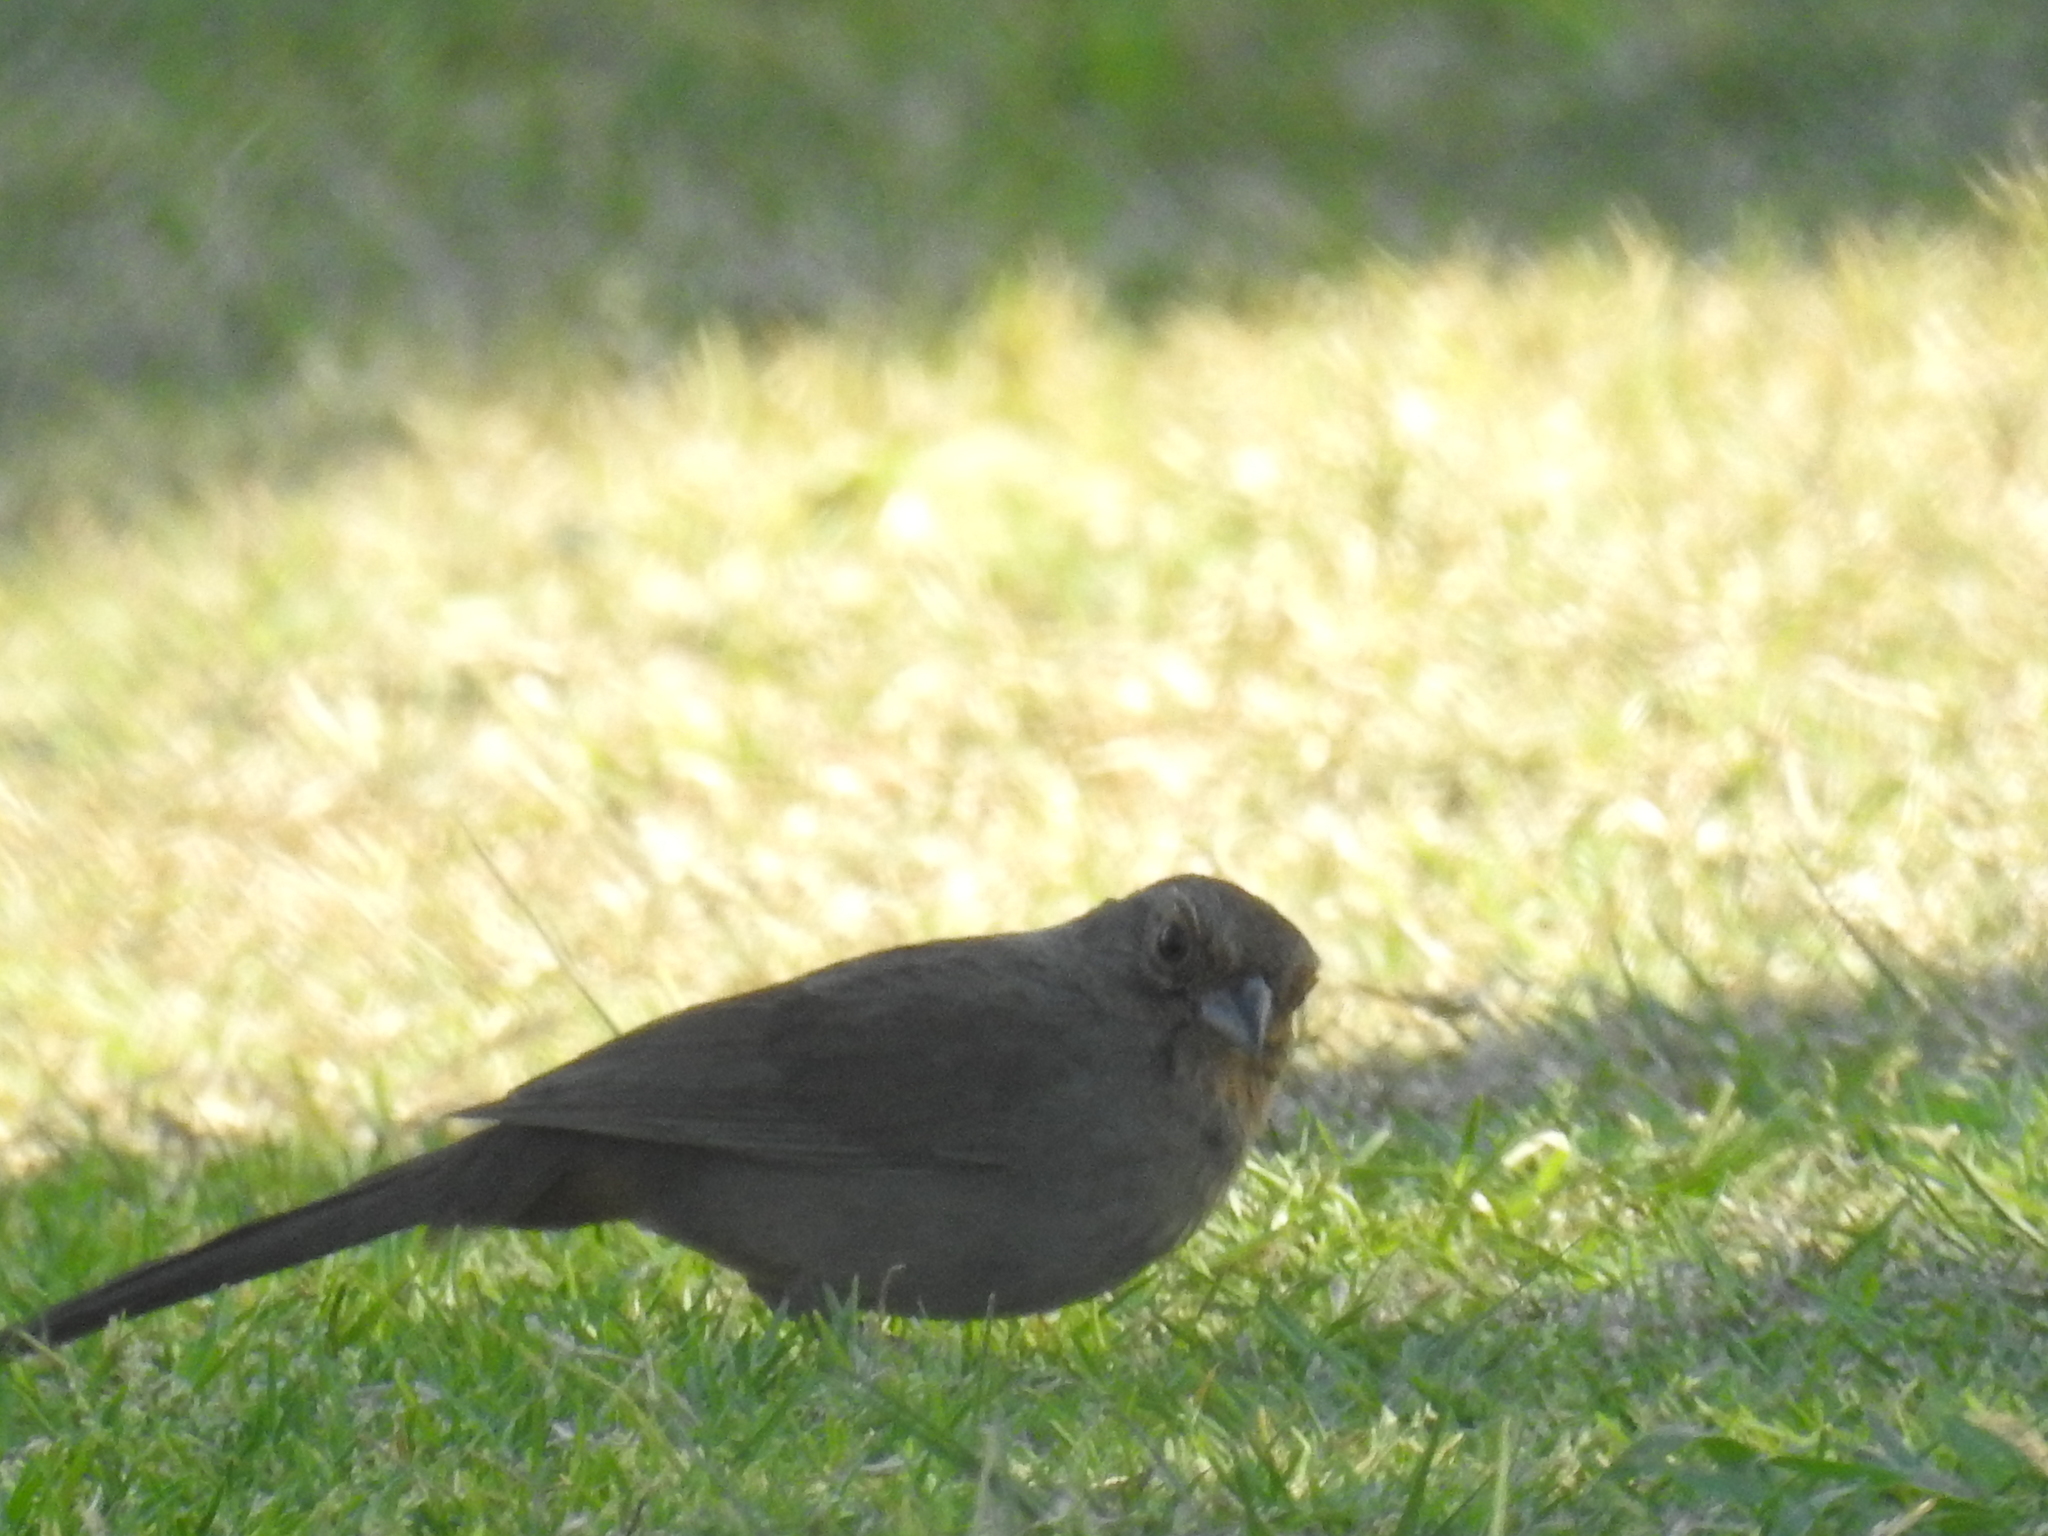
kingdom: Animalia
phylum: Chordata
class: Aves
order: Passeriformes
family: Passerellidae
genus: Melozone
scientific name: Melozone crissalis
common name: California towhee
